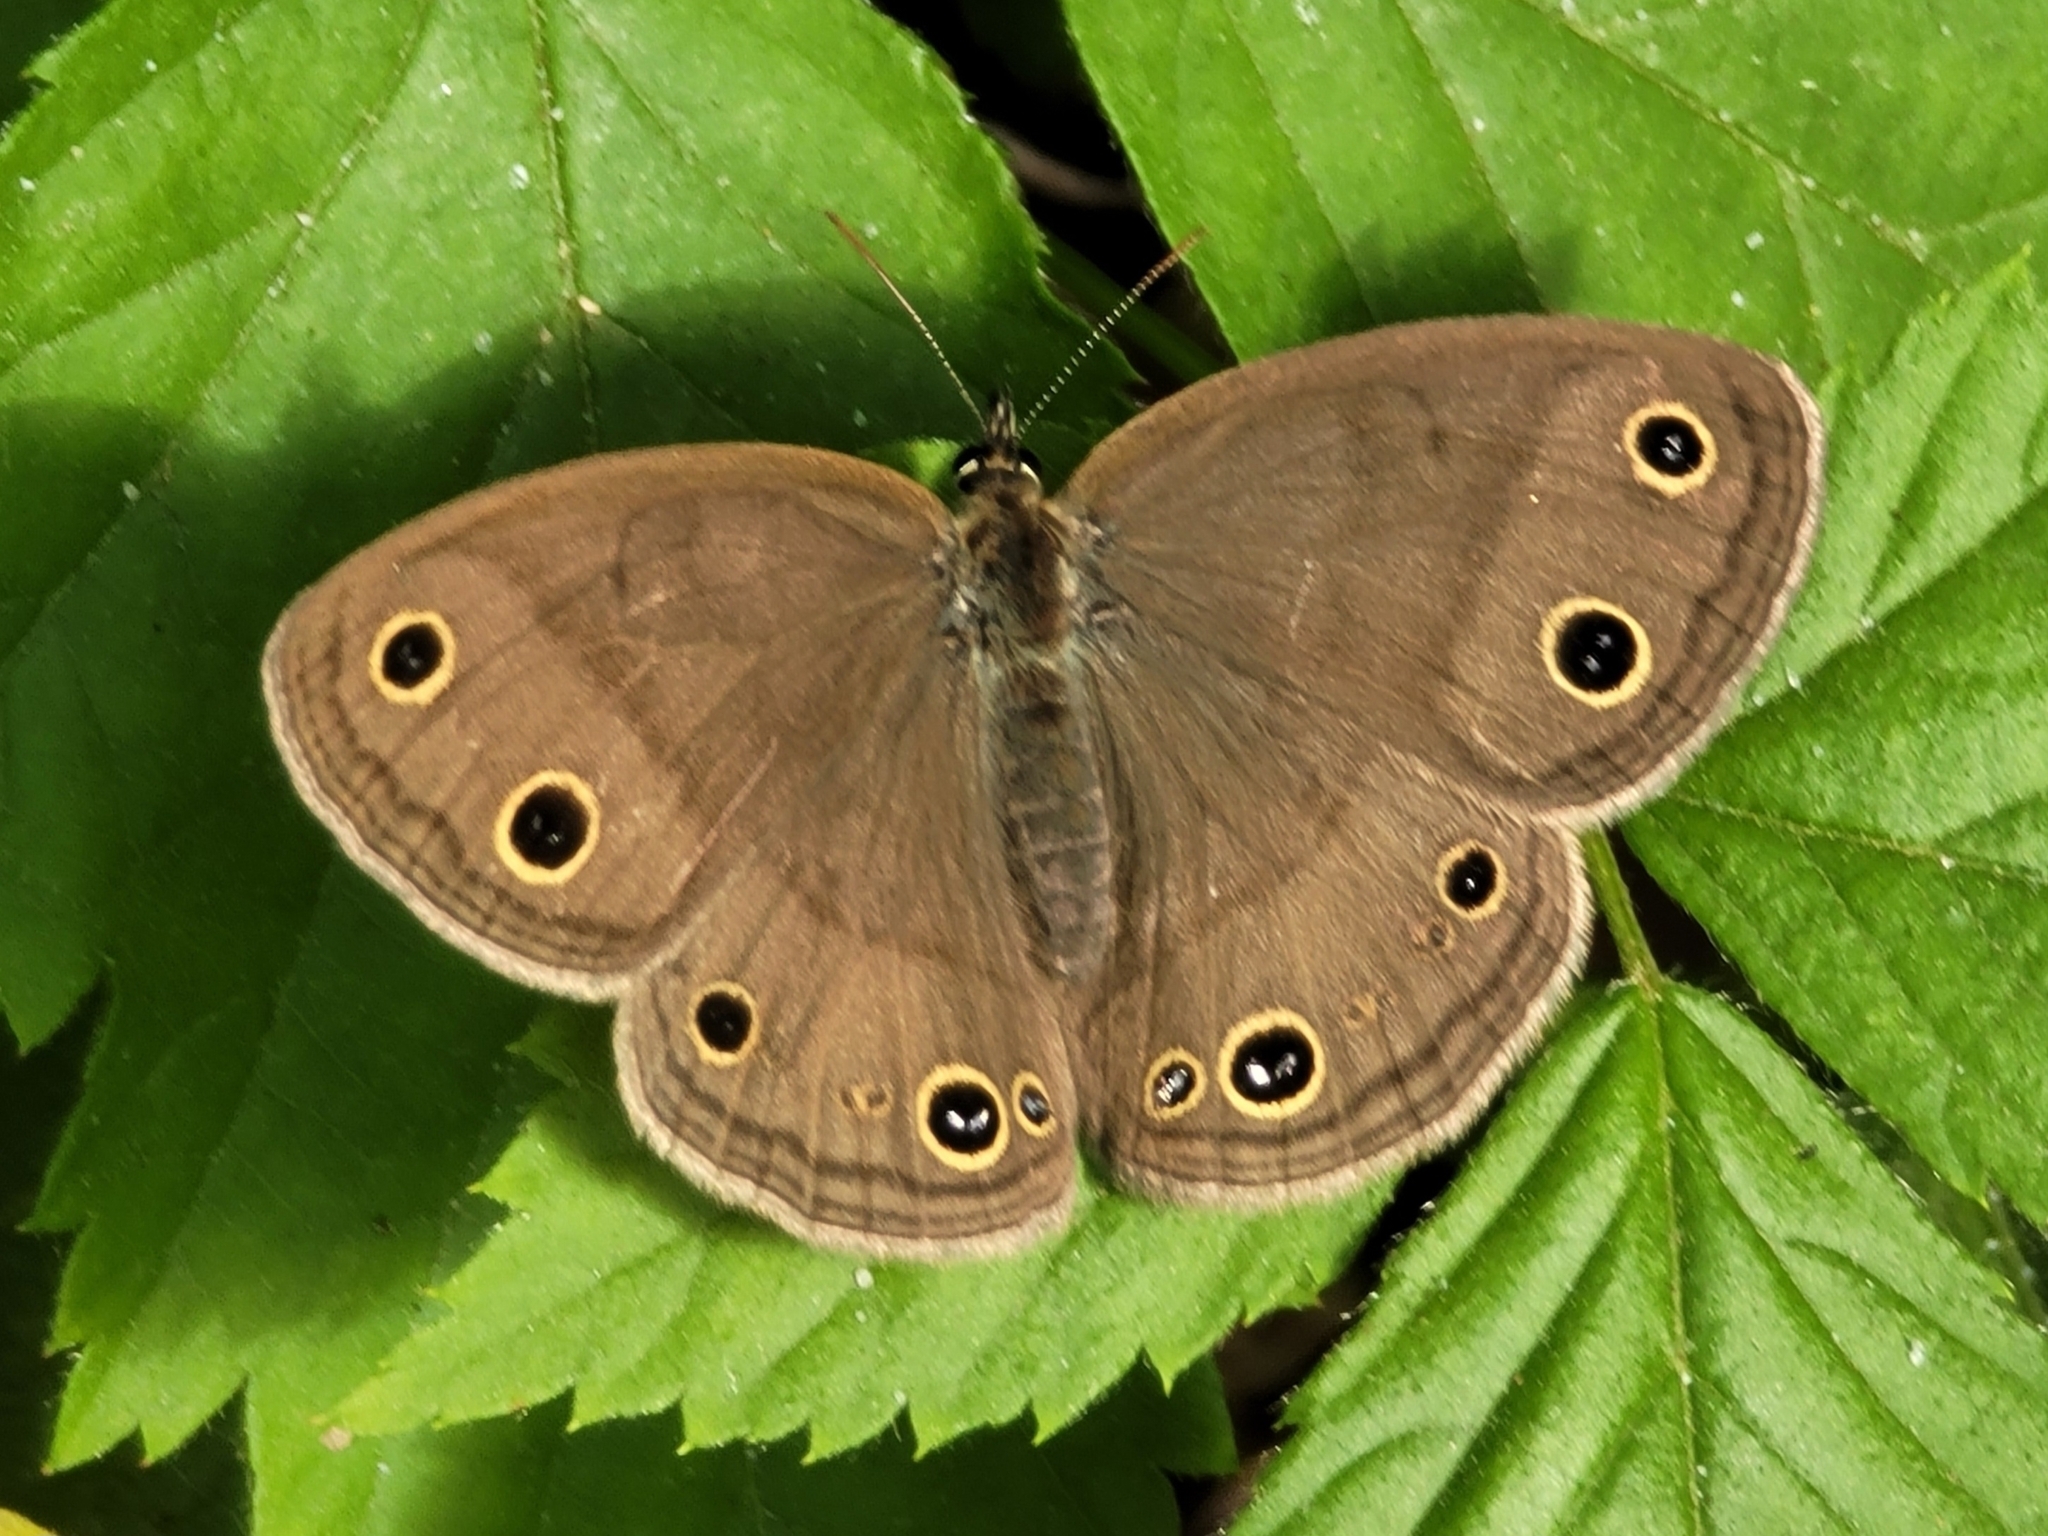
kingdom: Animalia
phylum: Arthropoda
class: Insecta
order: Lepidoptera
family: Nymphalidae
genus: Euptychia
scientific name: Euptychia cymela
